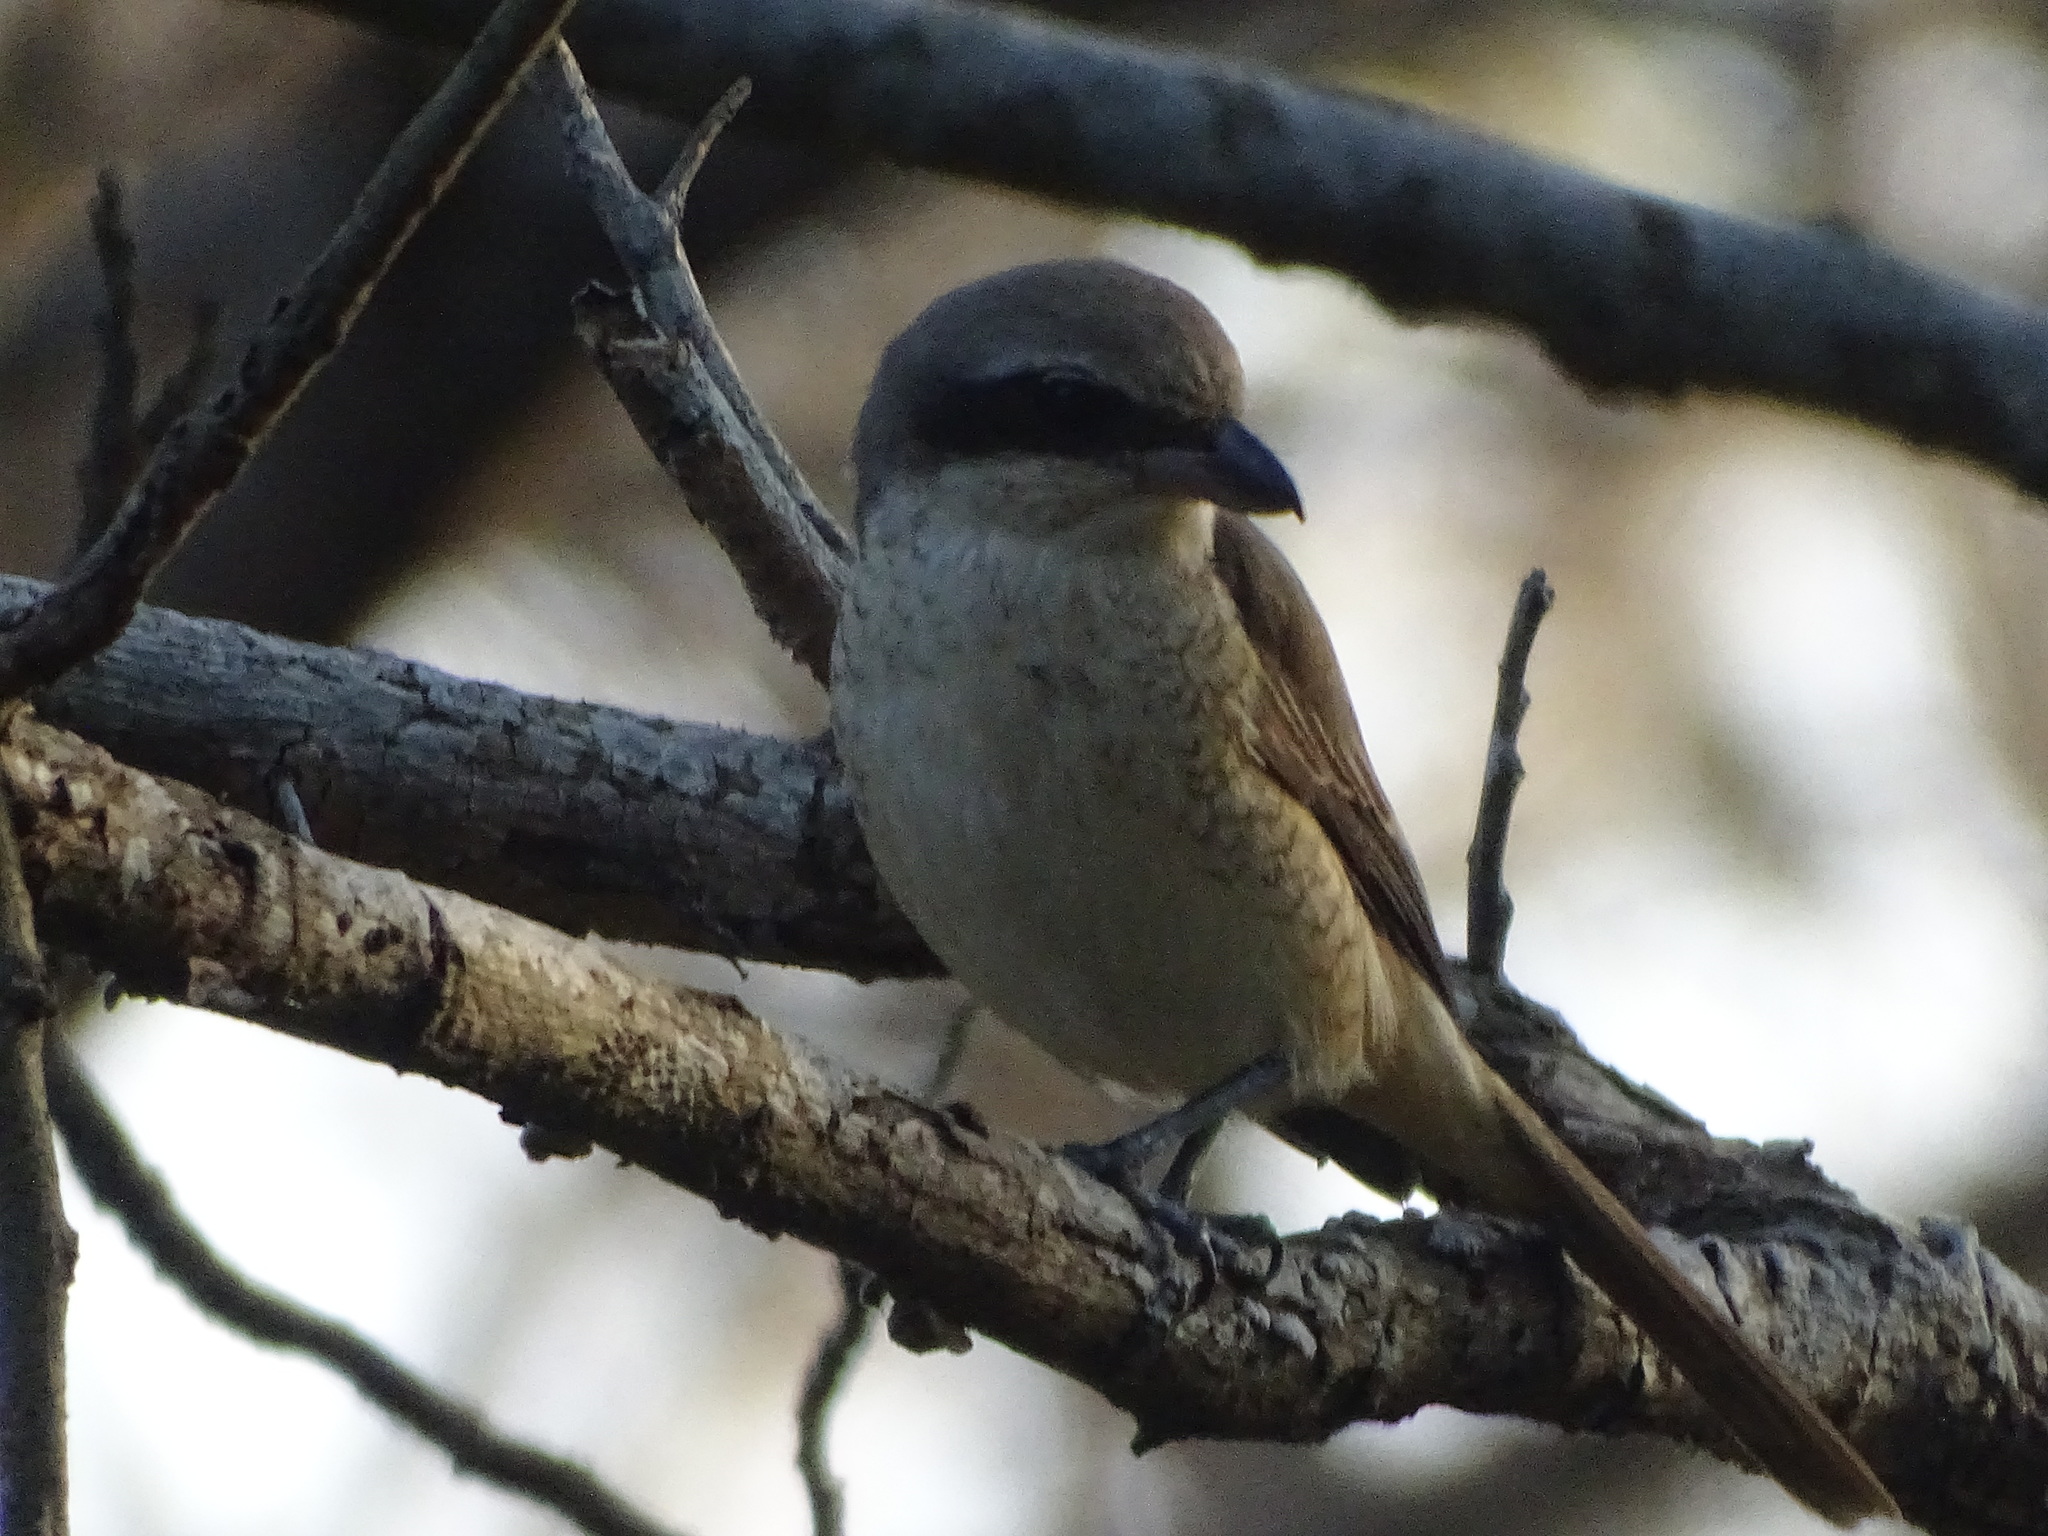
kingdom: Animalia
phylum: Chordata
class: Aves
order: Passeriformes
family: Laniidae
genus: Lanius
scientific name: Lanius cristatus
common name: Brown shrike
